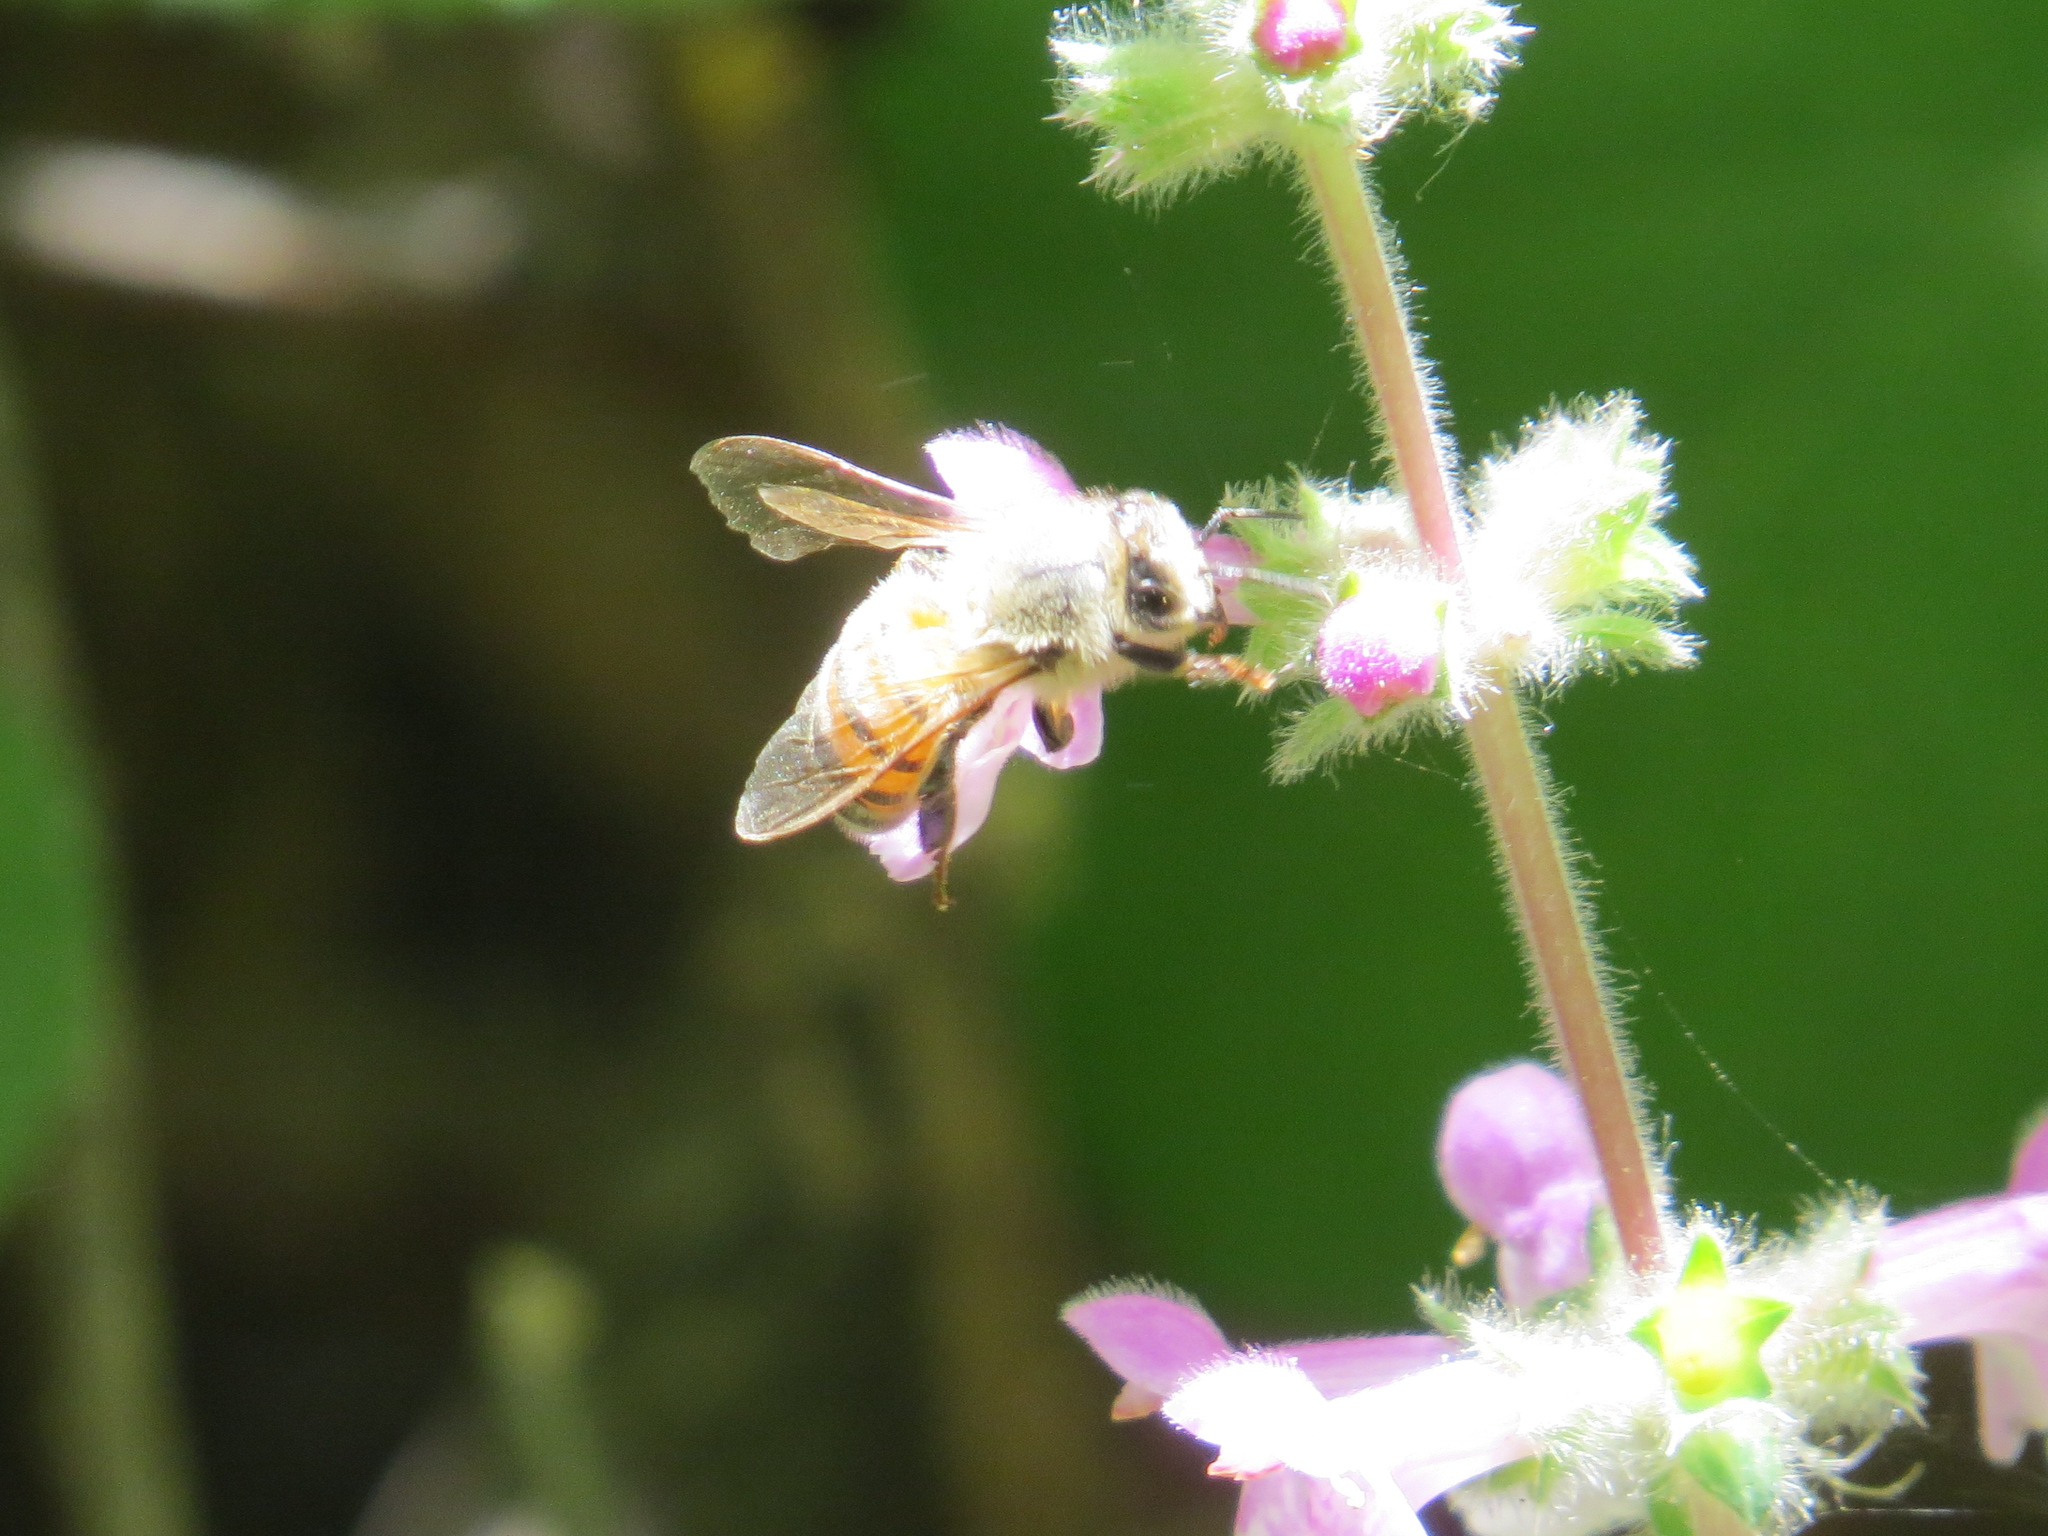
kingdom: Animalia
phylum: Arthropoda
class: Insecta
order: Hymenoptera
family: Apidae
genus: Apis
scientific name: Apis mellifera
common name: Honey bee
